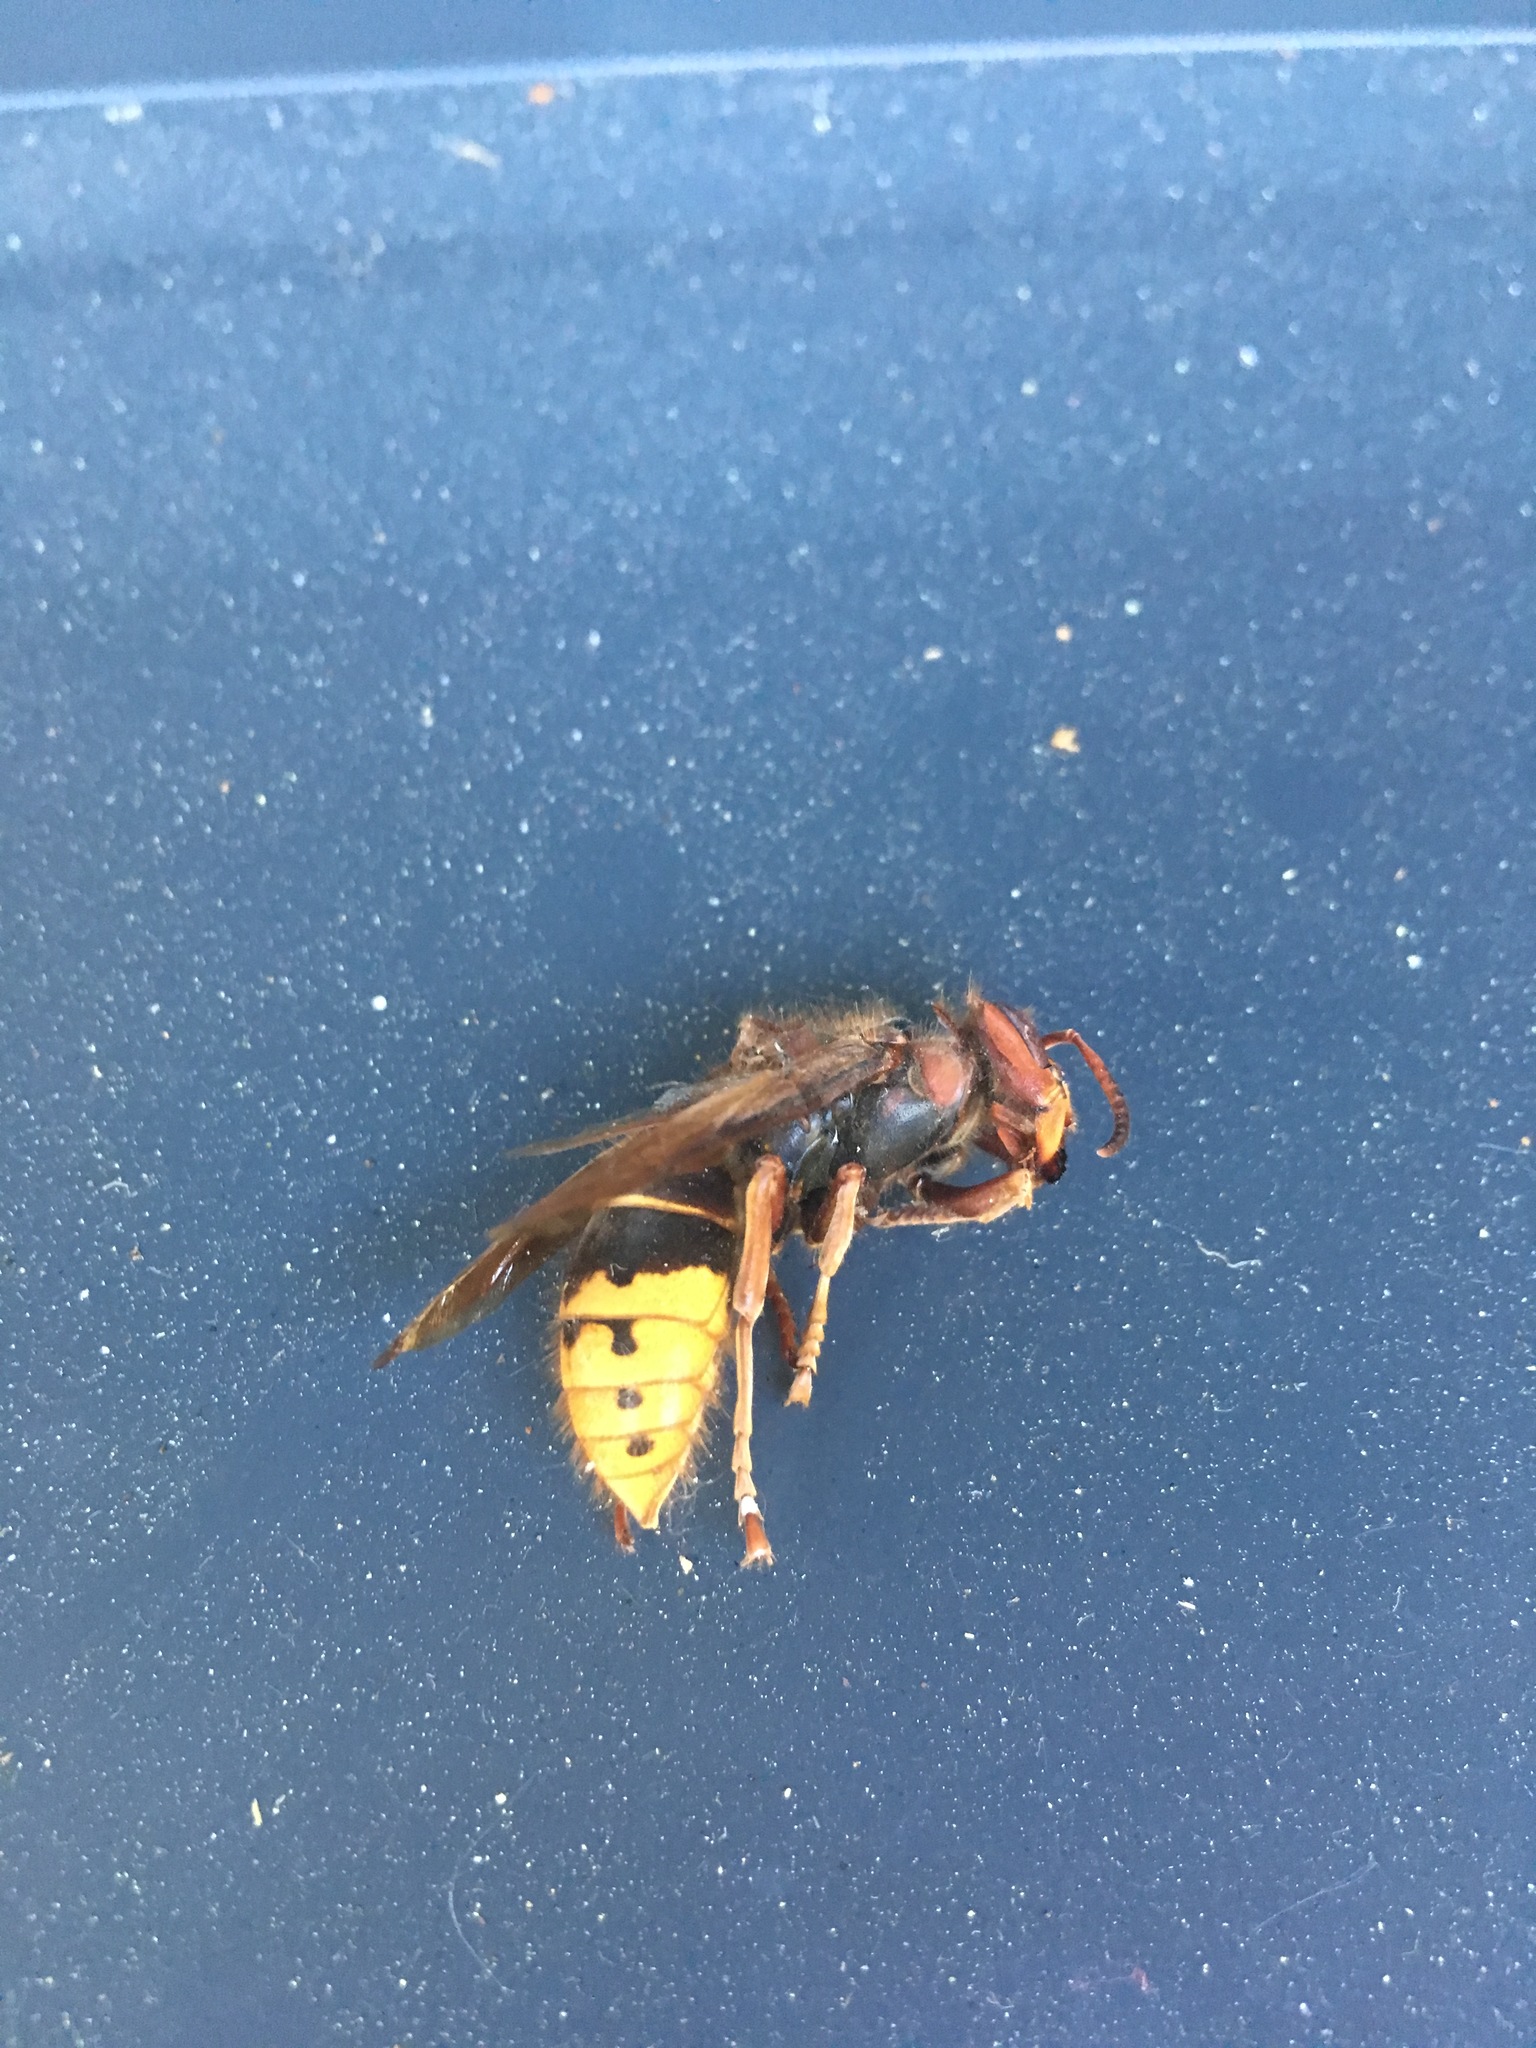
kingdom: Animalia
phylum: Arthropoda
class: Insecta
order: Hymenoptera
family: Vespidae
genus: Vespa
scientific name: Vespa crabro
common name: Hornet
